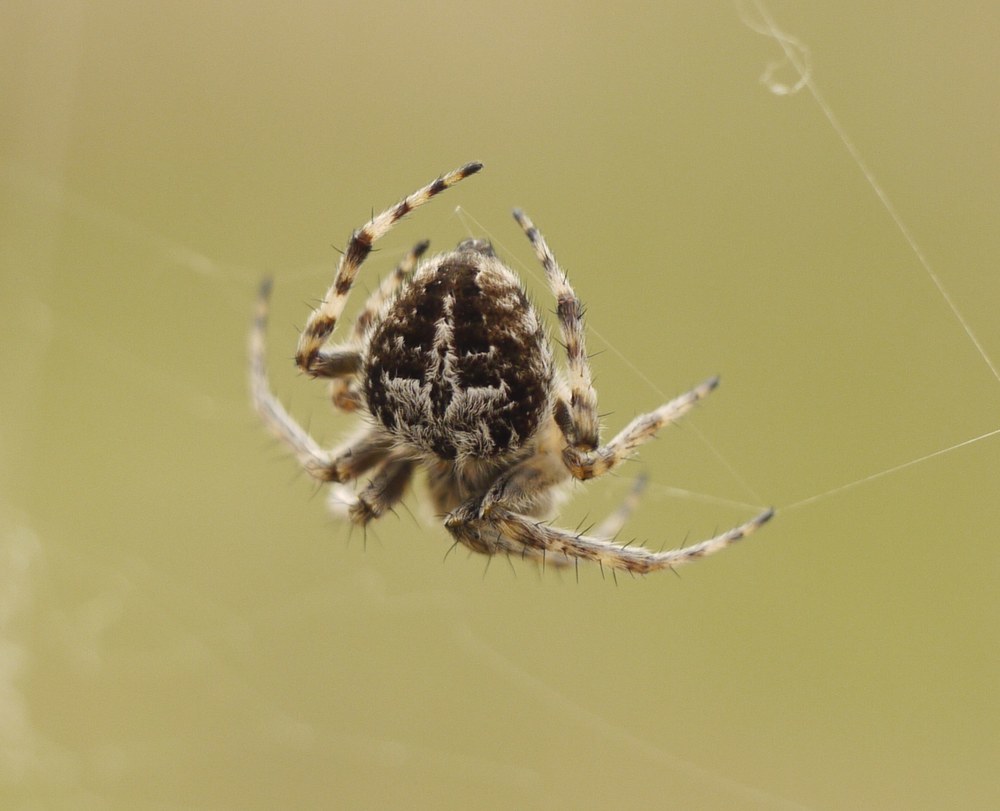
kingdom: Animalia
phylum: Arthropoda
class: Arachnida
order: Araneae
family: Araneidae
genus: Agalenatea
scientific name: Agalenatea redii
